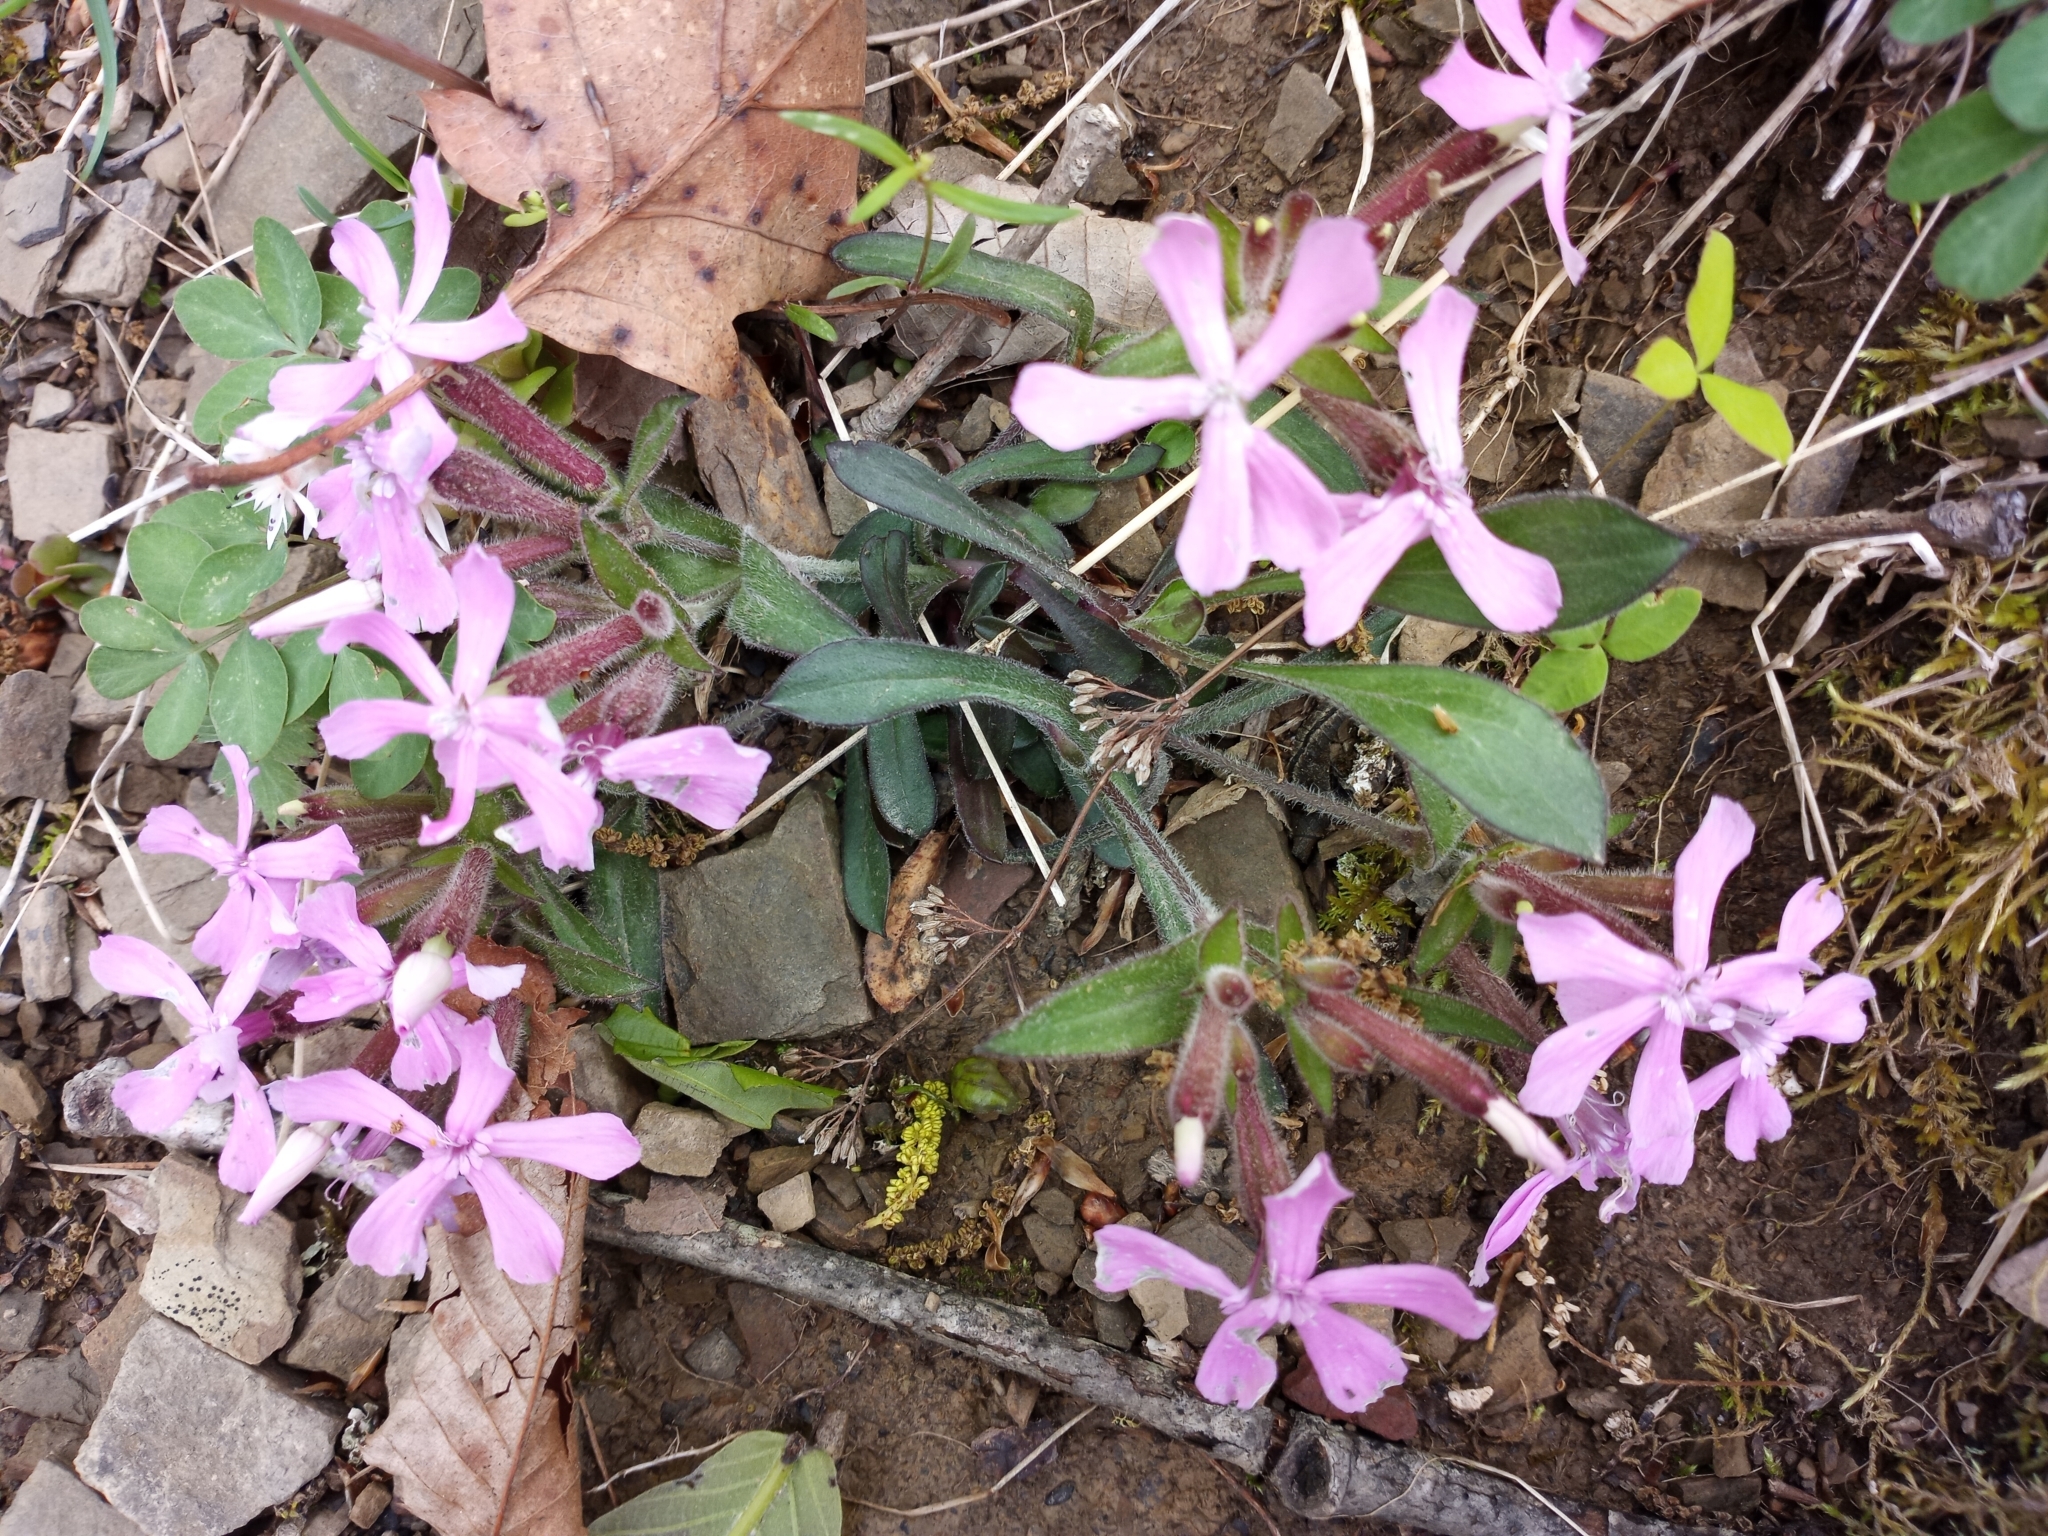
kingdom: Plantae
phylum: Tracheophyta
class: Magnoliopsida
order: Caryophyllales
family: Caryophyllaceae
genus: Silene
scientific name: Silene caroliniana
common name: Sticky catchfly
